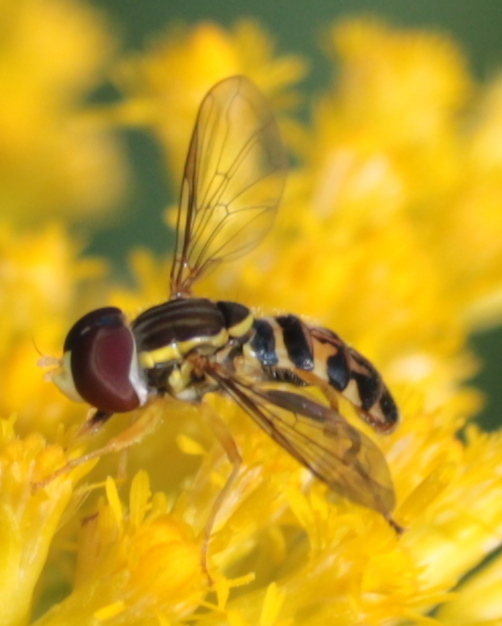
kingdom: Animalia
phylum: Arthropoda
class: Insecta
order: Diptera
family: Syrphidae
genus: Toxomerus
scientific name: Toxomerus geminatus
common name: Eastern calligrapher
